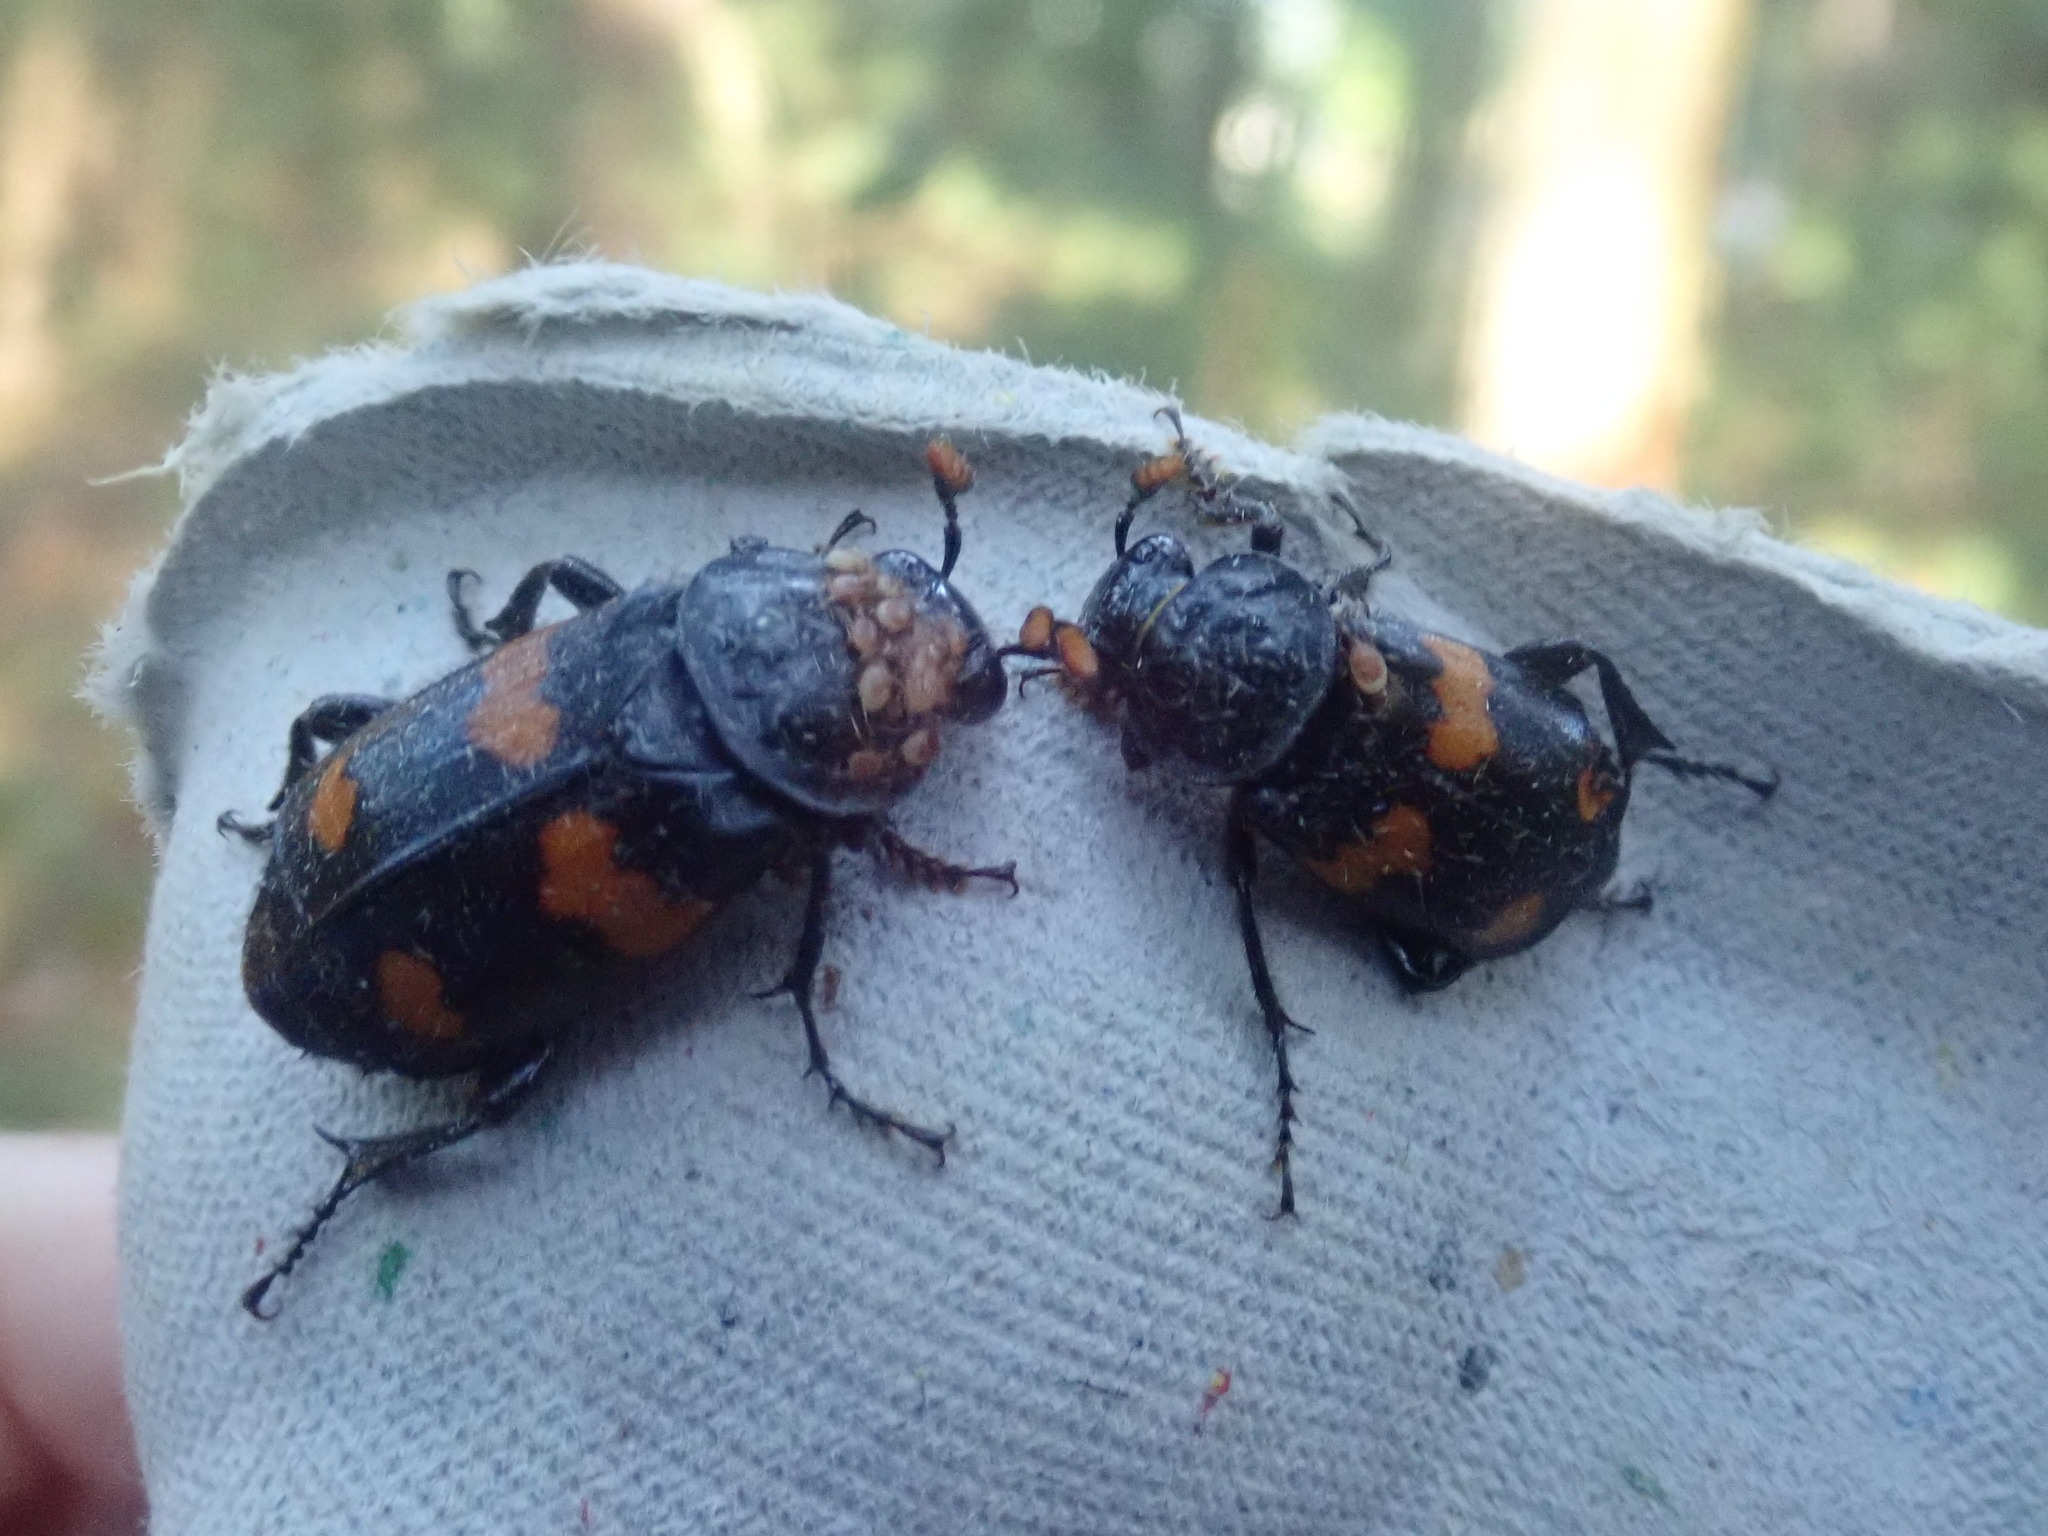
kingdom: Animalia
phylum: Arthropoda
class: Insecta
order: Coleoptera
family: Staphylinidae
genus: Nicrophorus
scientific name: Nicrophorus orbicollis
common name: Roundneck sexton beetle
